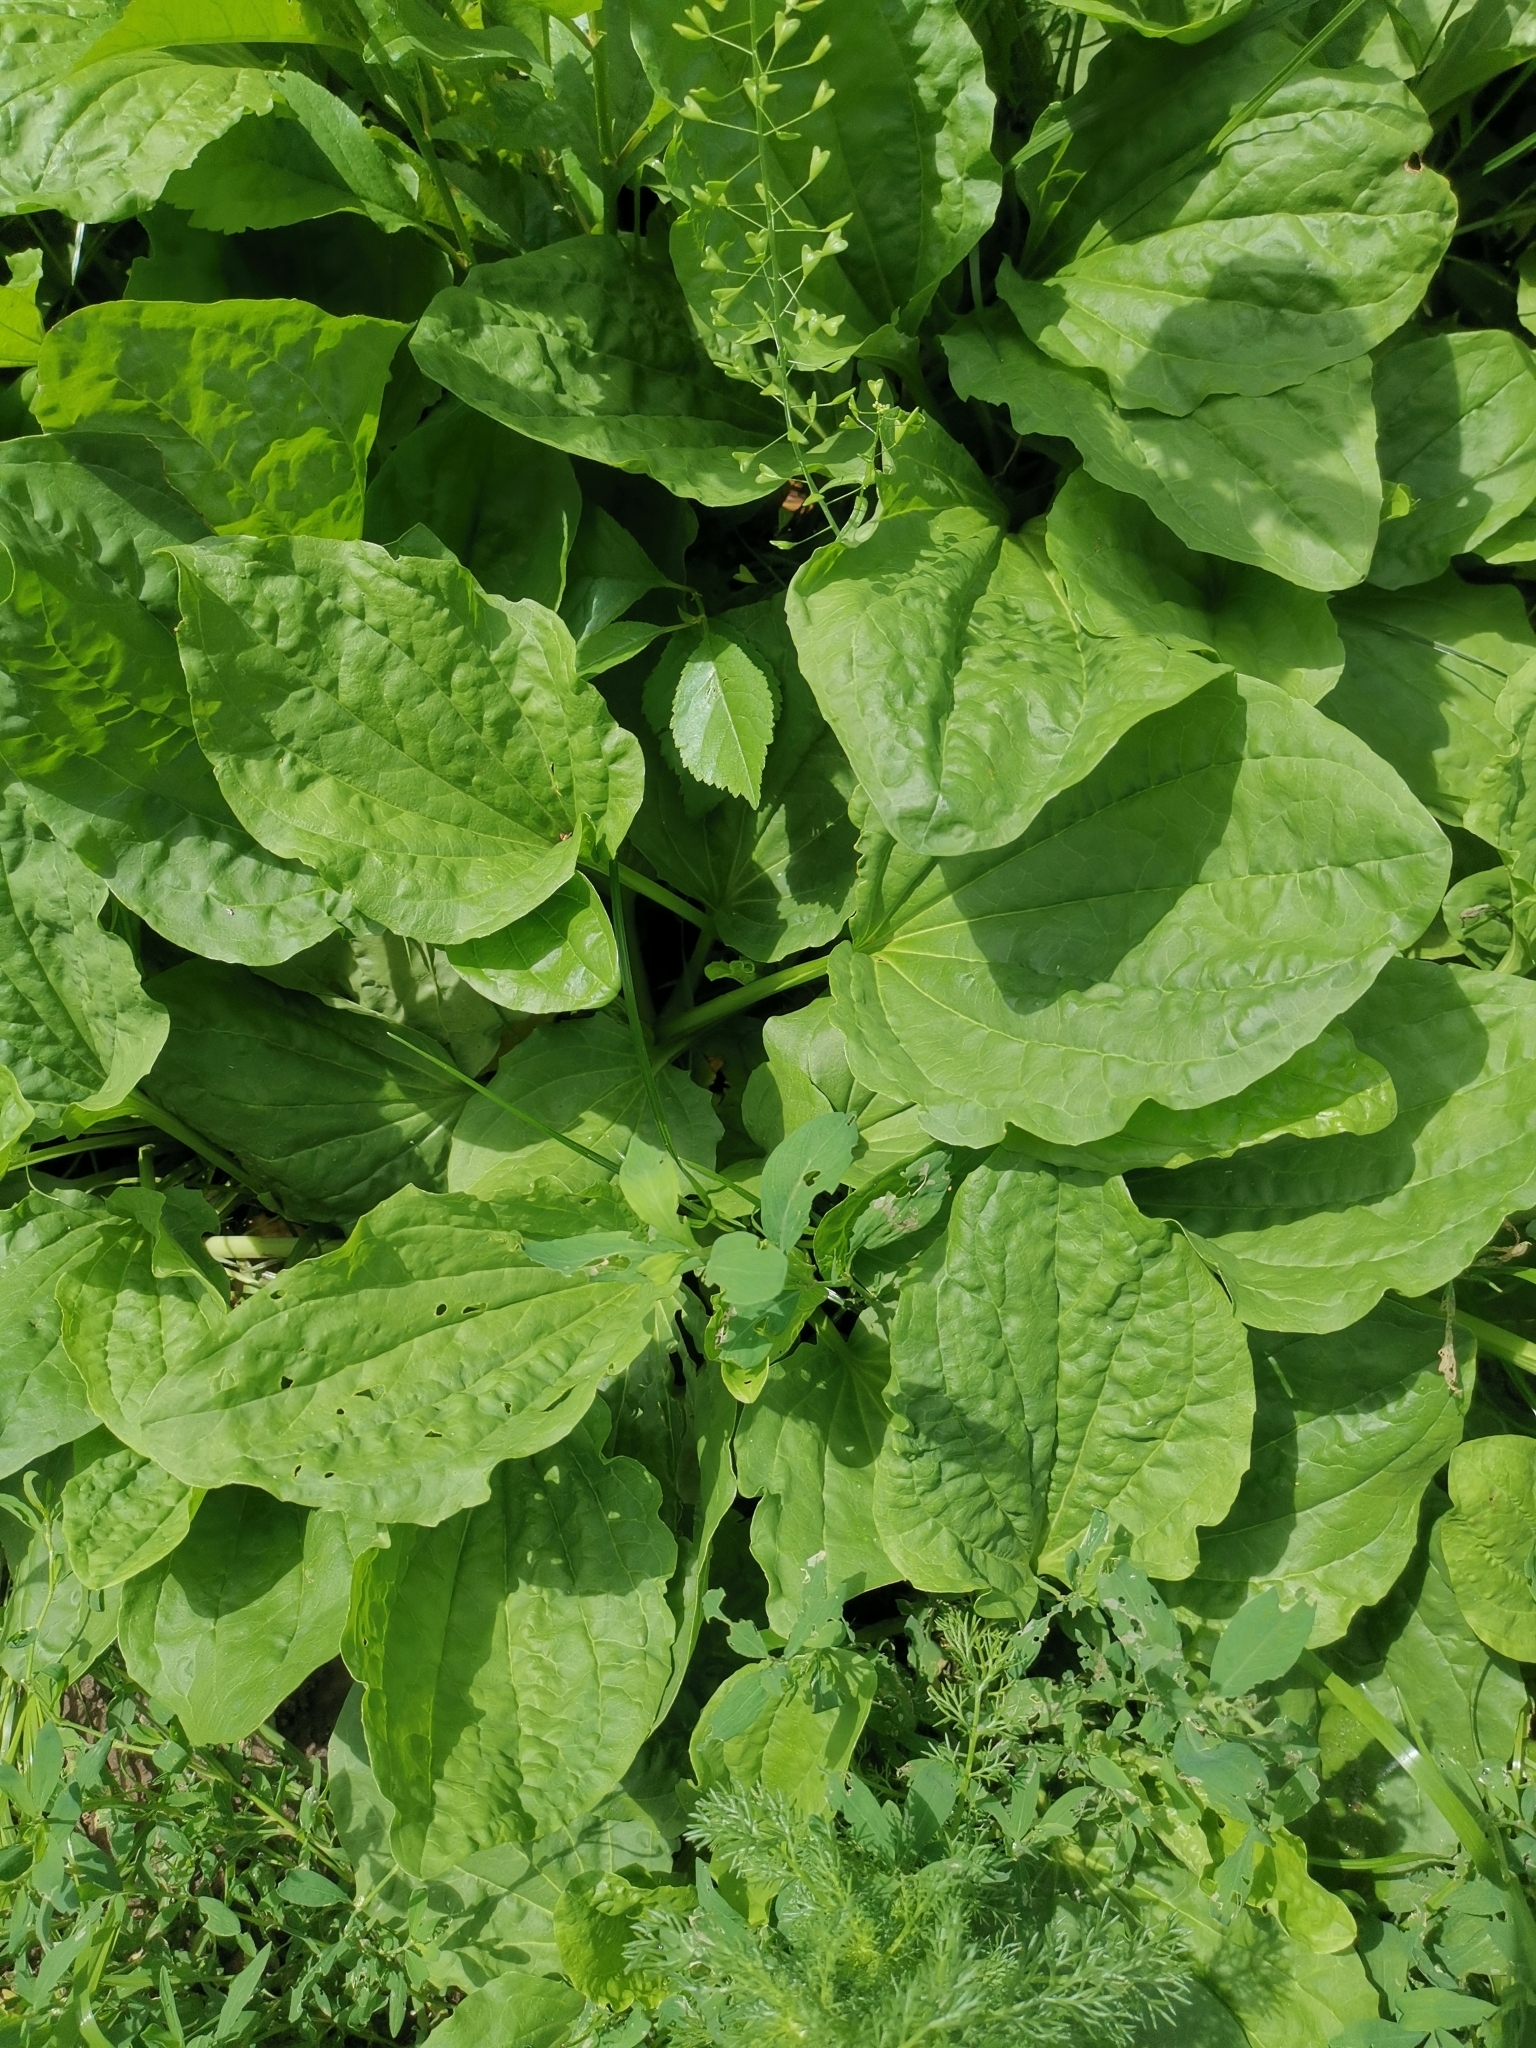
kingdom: Plantae
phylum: Tracheophyta
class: Magnoliopsida
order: Lamiales
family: Plantaginaceae
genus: Plantago
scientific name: Plantago major
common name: Common plantain
